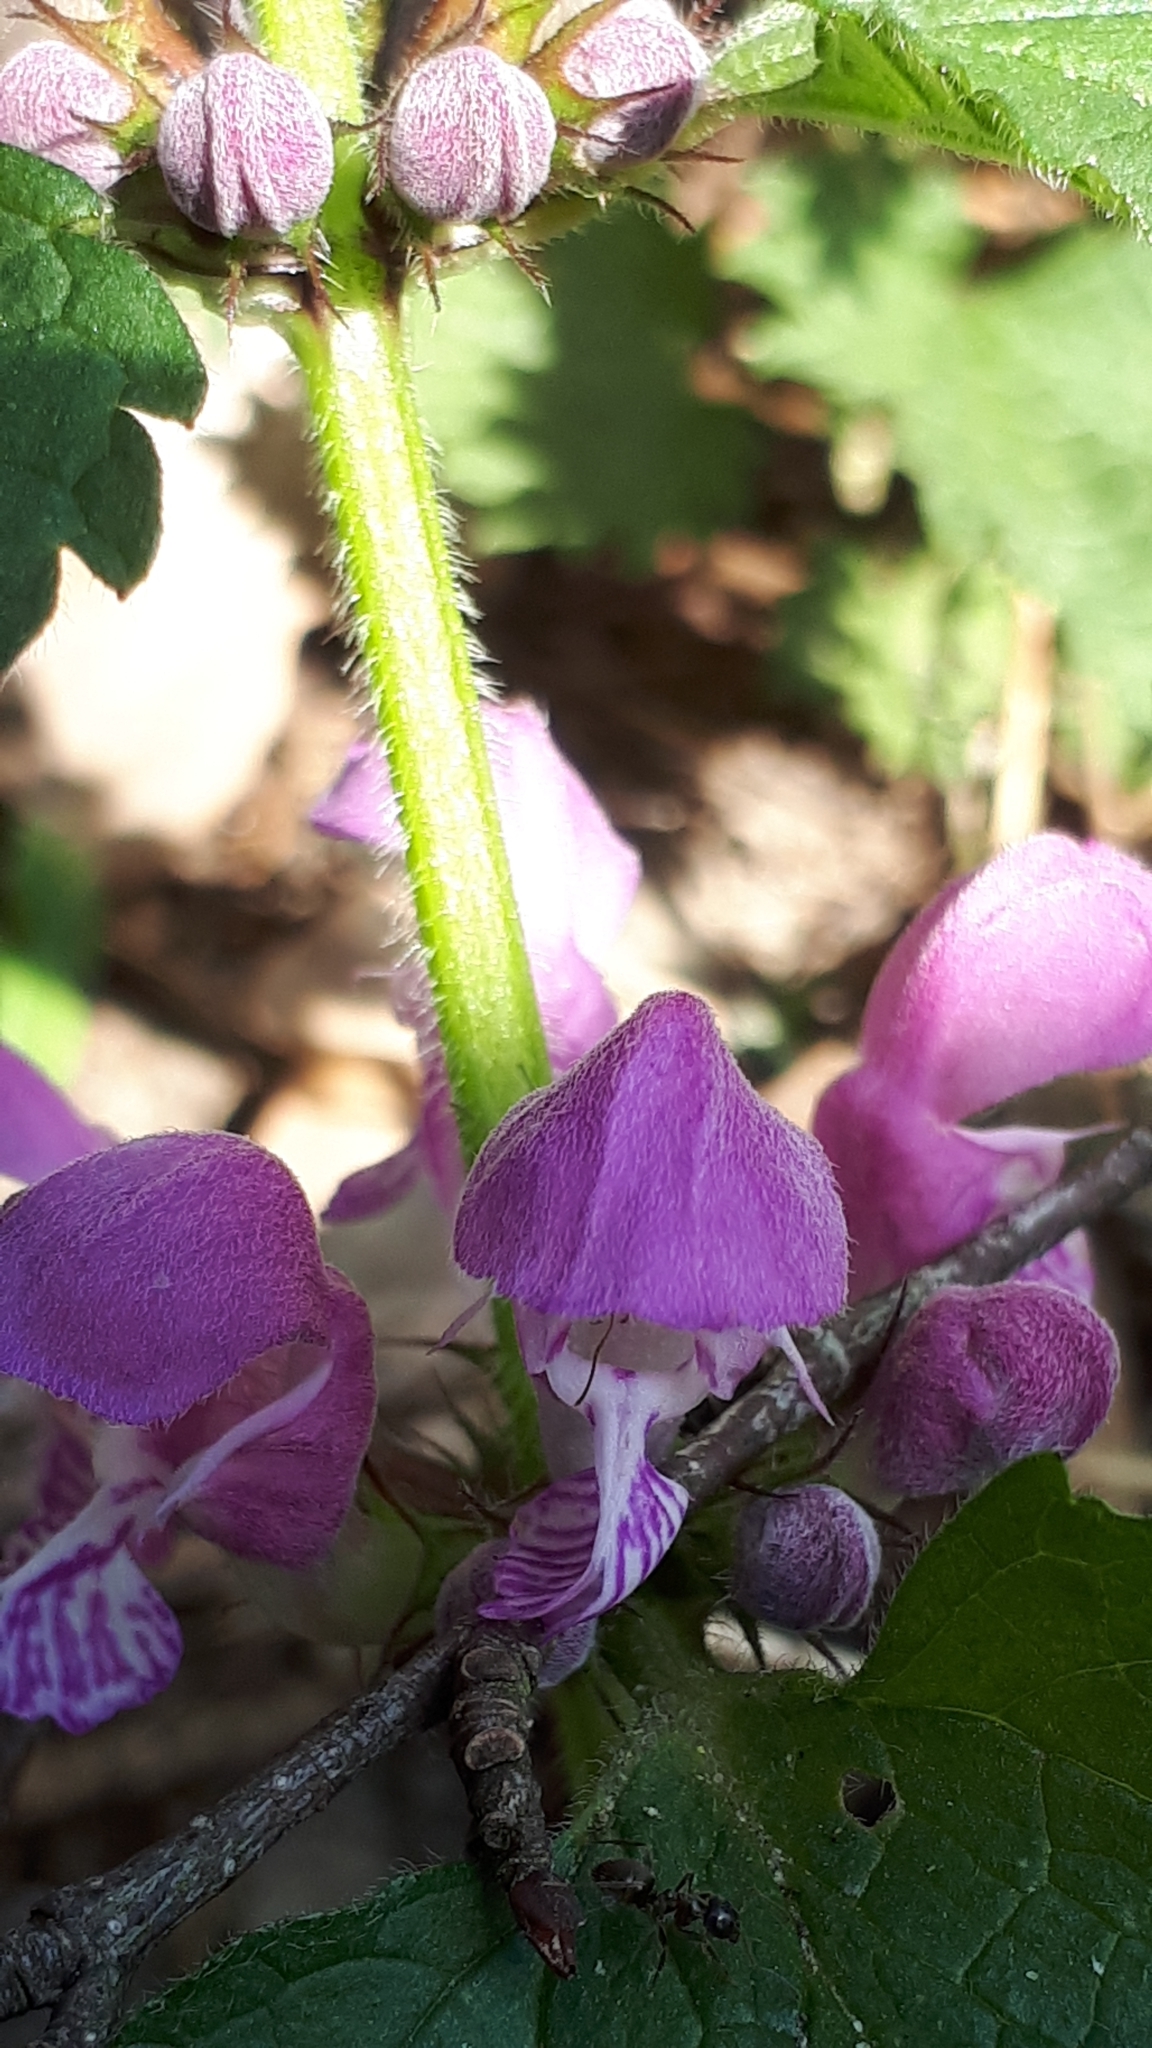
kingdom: Plantae
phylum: Tracheophyta
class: Magnoliopsida
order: Lamiales
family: Lamiaceae
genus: Lamium
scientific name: Lamium maculatum
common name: Spotted dead-nettle
